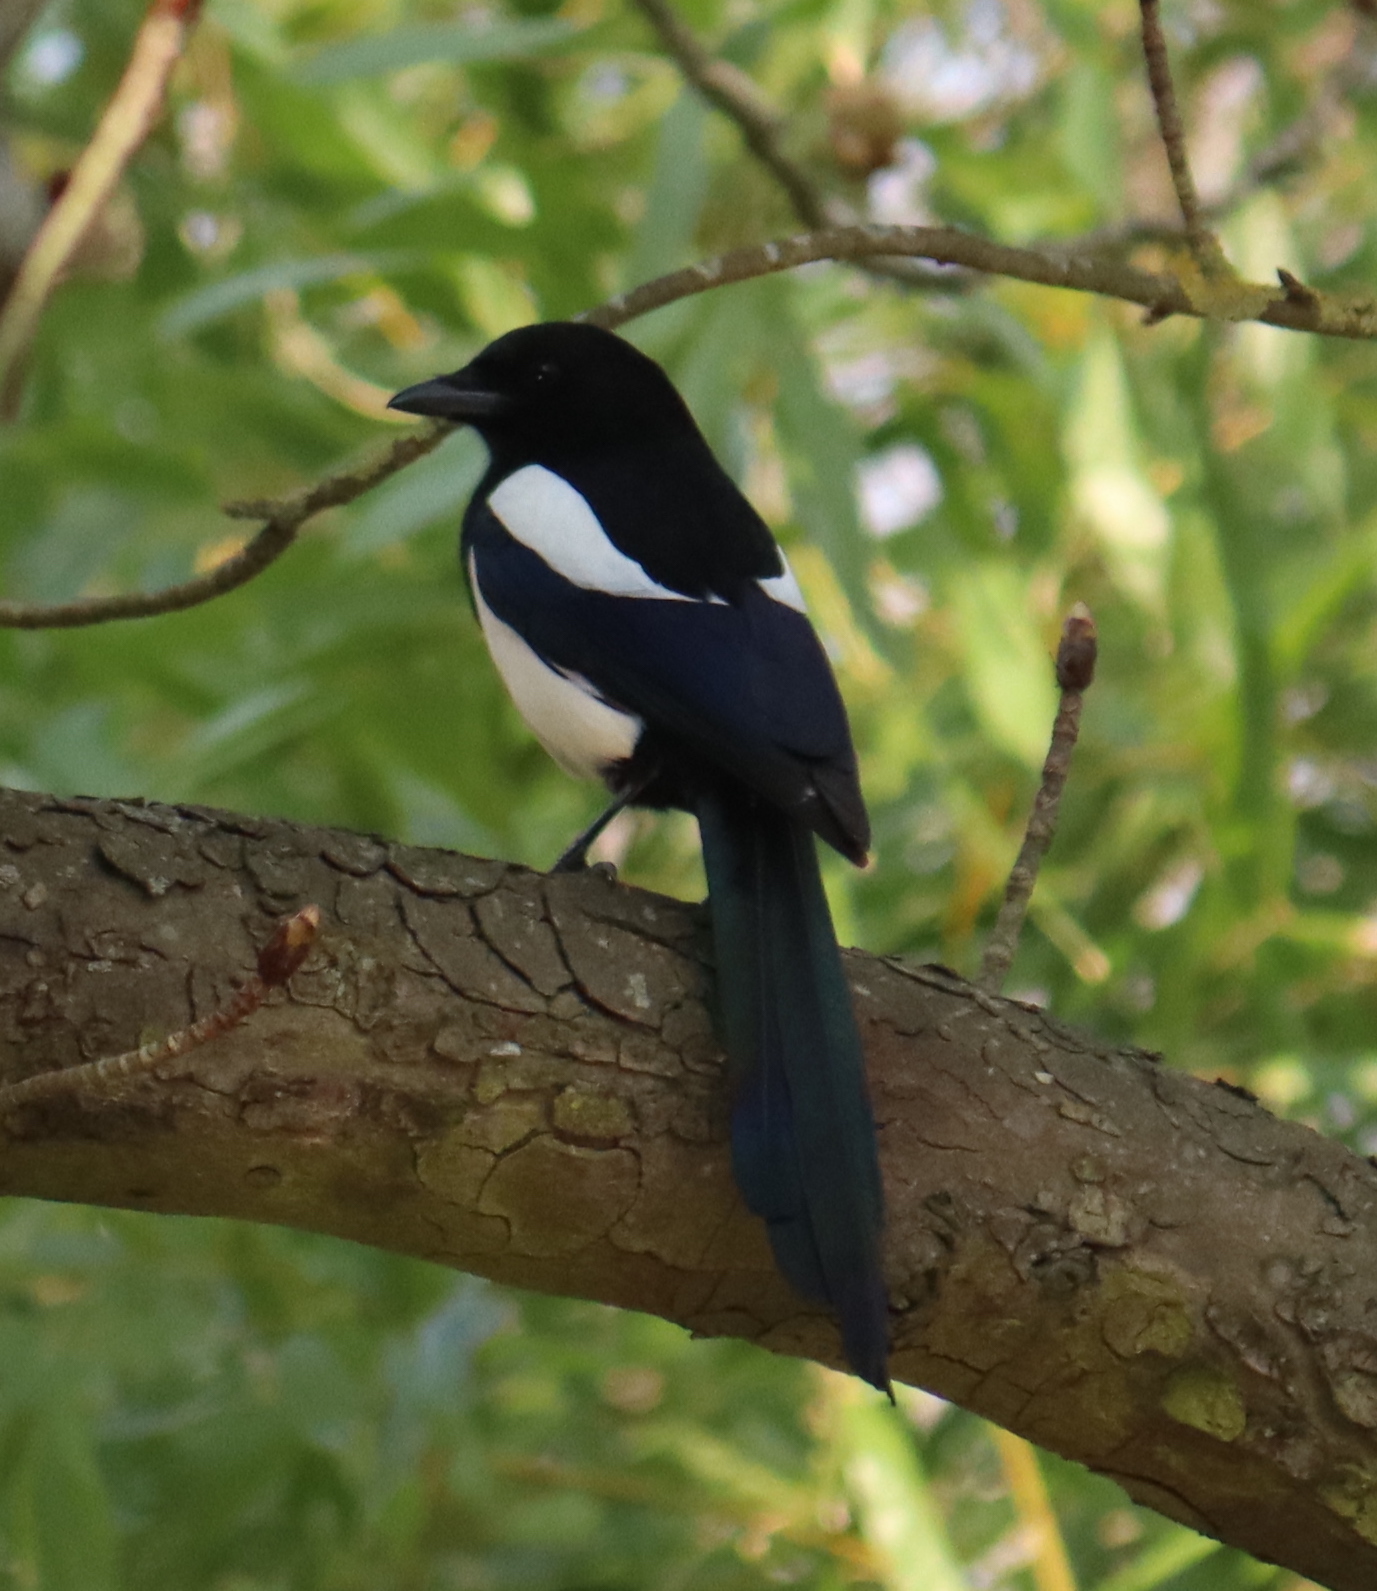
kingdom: Animalia
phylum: Chordata
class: Aves
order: Passeriformes
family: Corvidae
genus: Pica
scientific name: Pica pica
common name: Eurasian magpie
